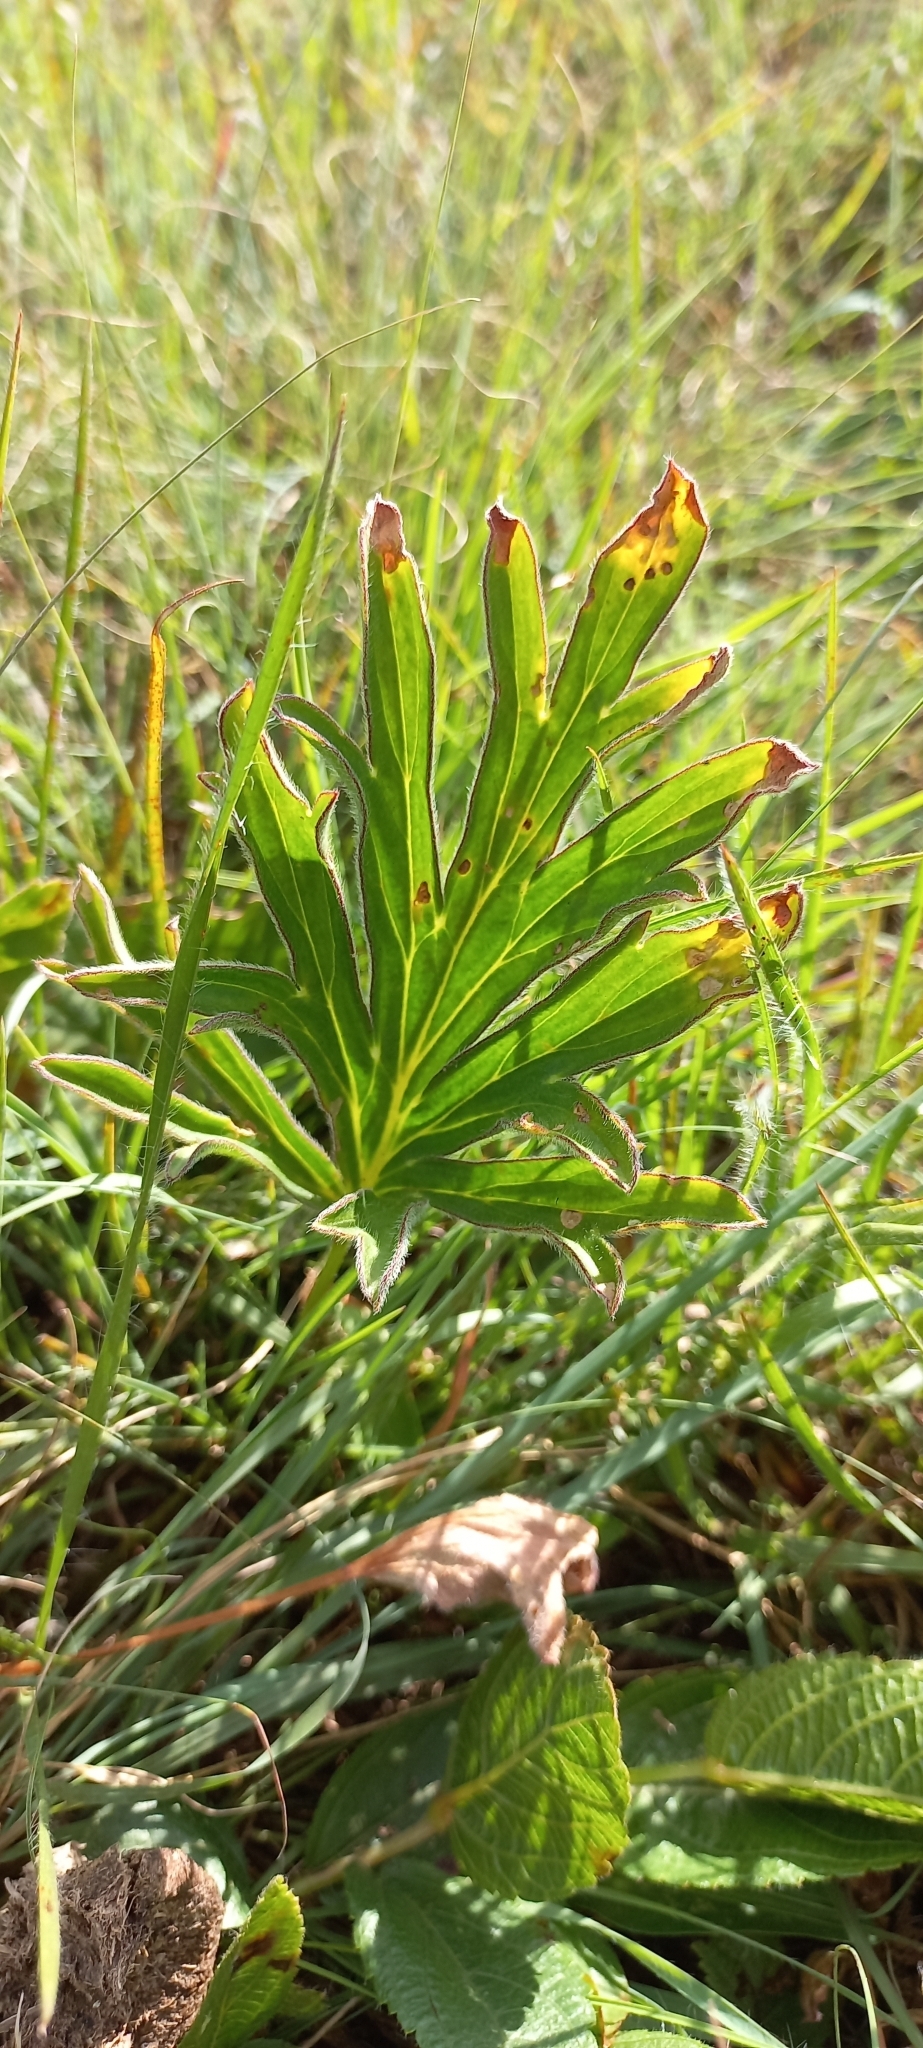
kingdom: Plantae
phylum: Tracheophyta
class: Magnoliopsida
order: Geraniales
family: Geraniaceae
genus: Pelargonium
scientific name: Pelargonium luridum
